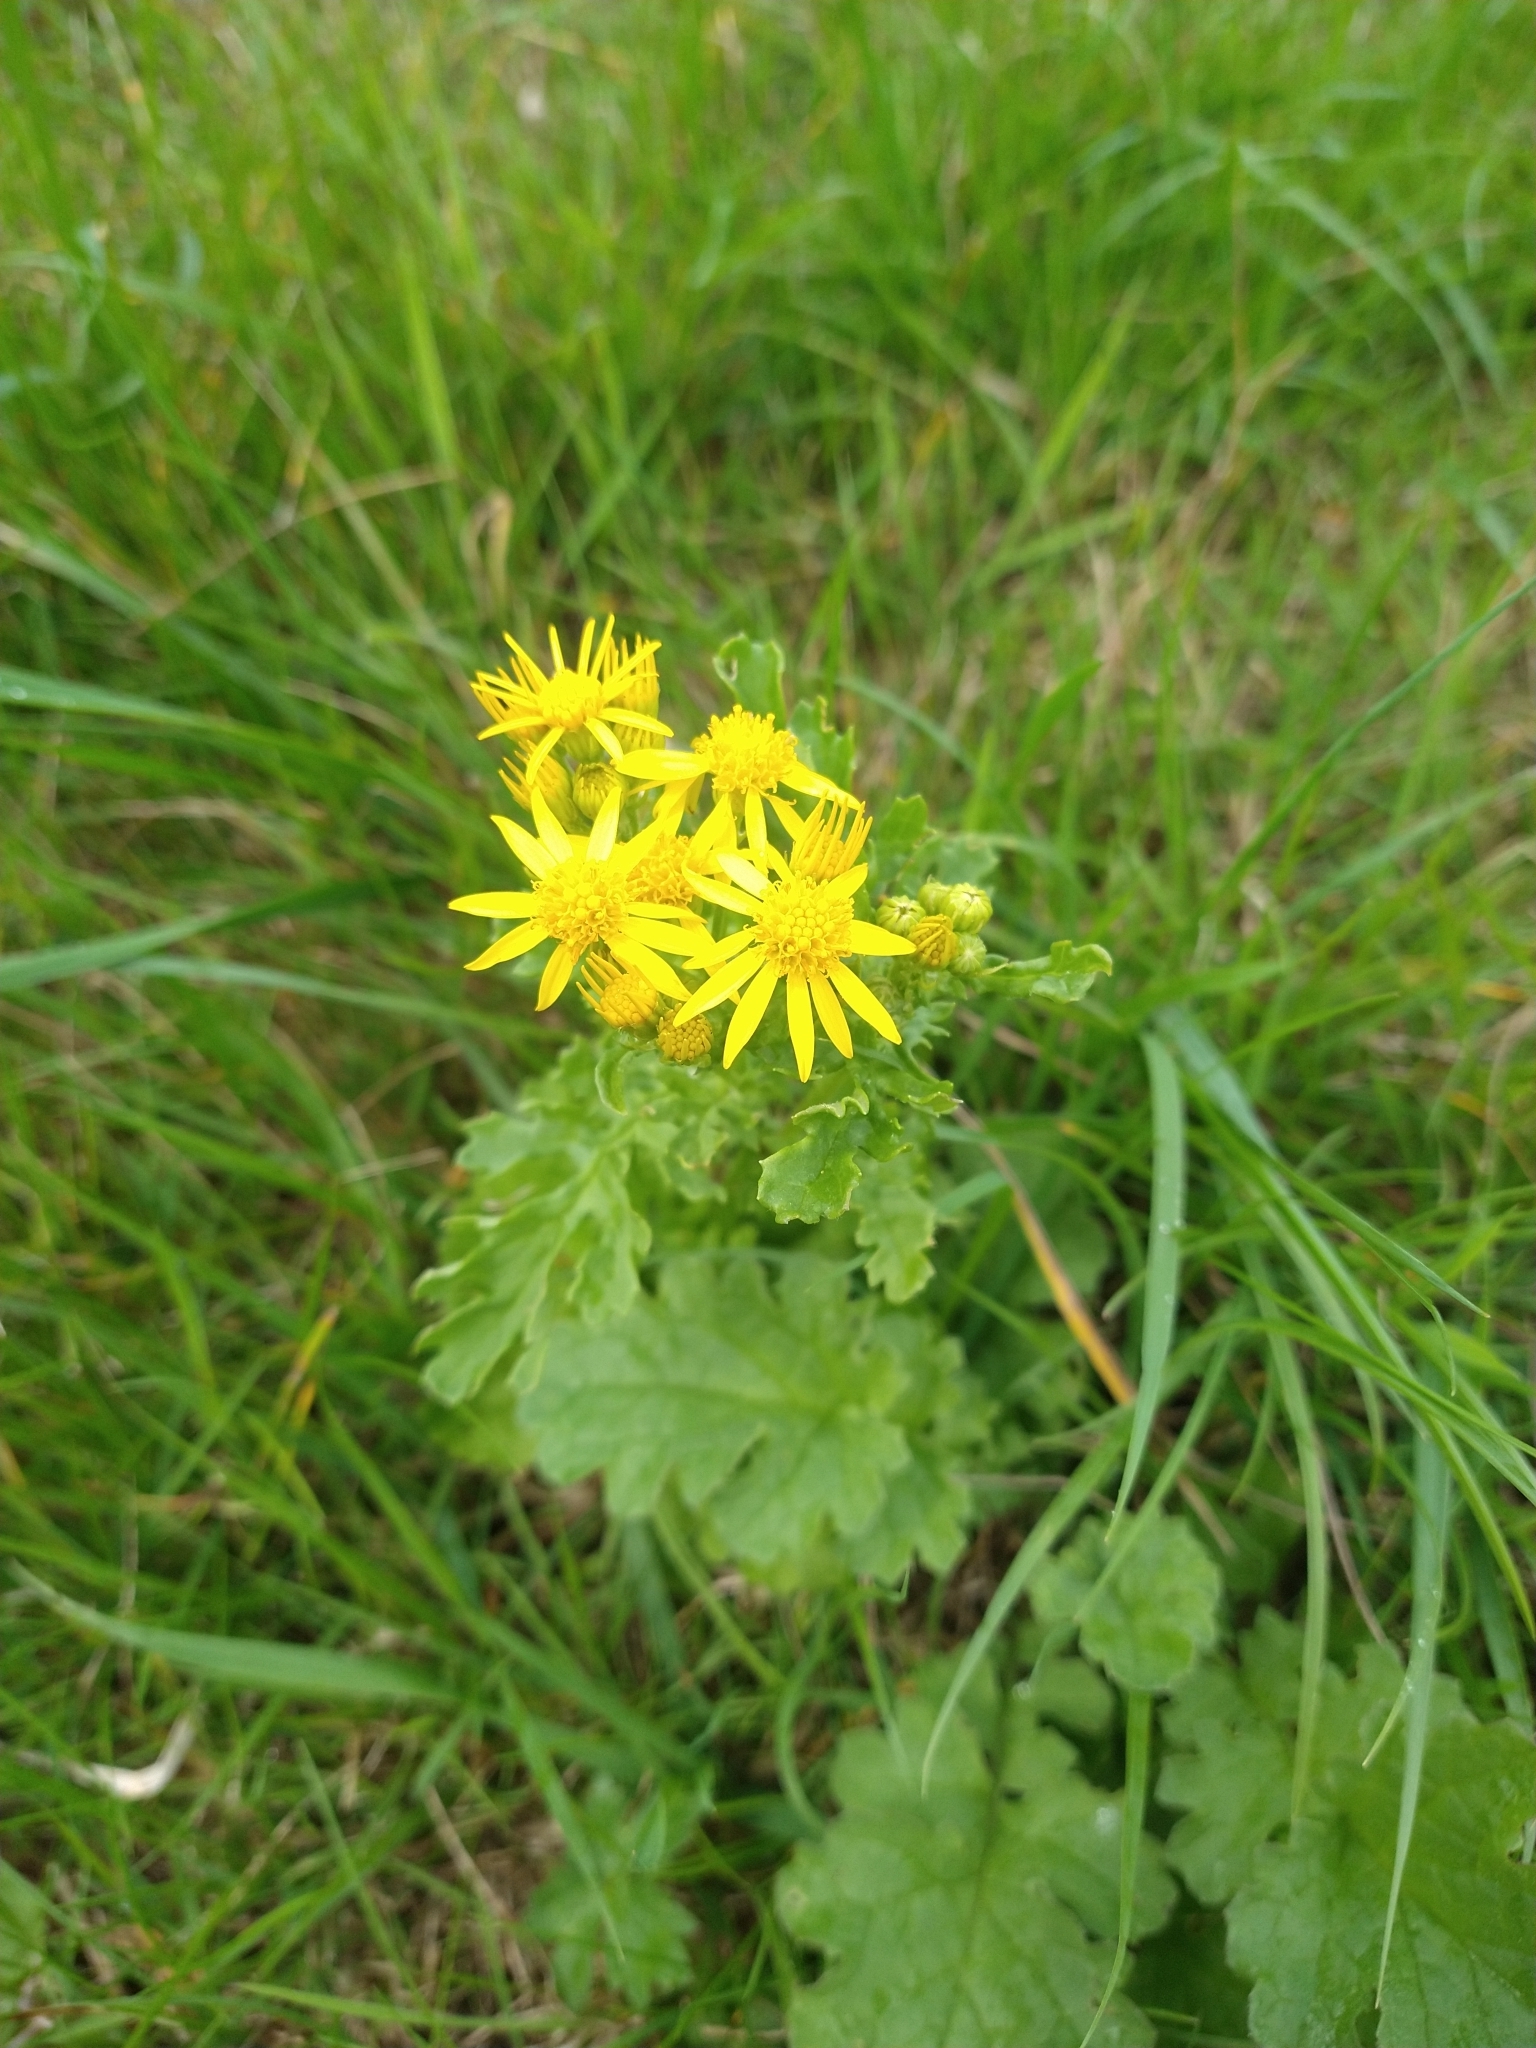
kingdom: Plantae
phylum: Tracheophyta
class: Magnoliopsida
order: Asterales
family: Asteraceae
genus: Jacobaea
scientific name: Jacobaea vulgaris
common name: Stinking willie
